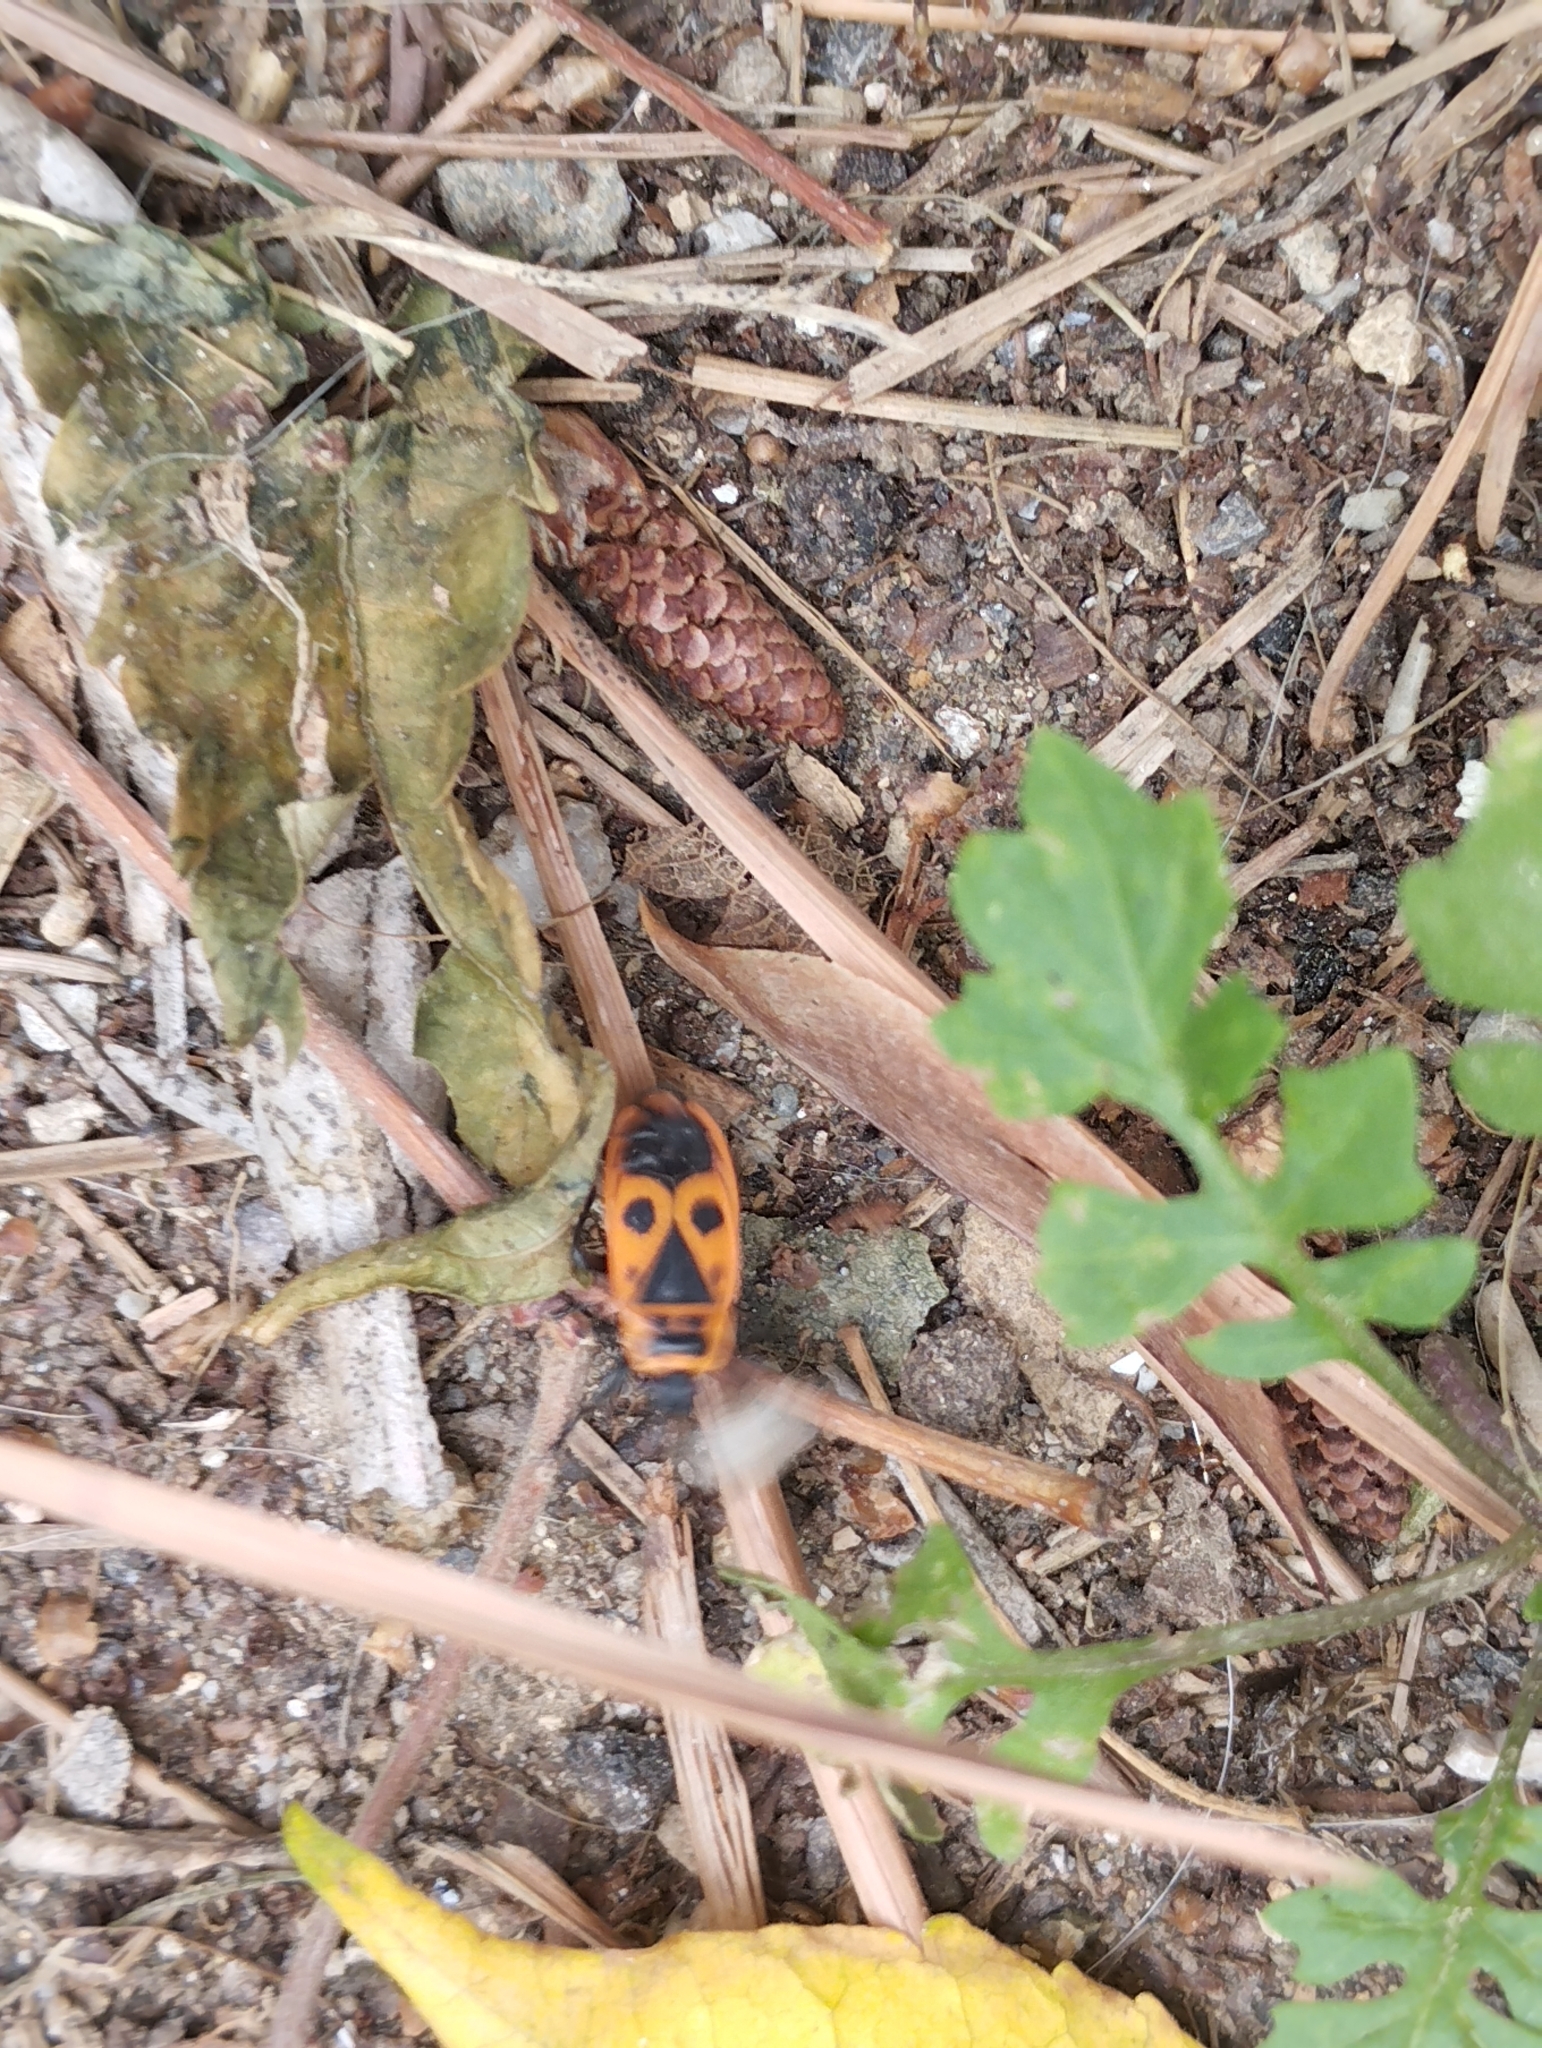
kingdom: Animalia
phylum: Arthropoda
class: Insecta
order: Hemiptera
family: Pyrrhocoridae
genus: Pyrrhocoris
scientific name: Pyrrhocoris apterus
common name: Firebug
